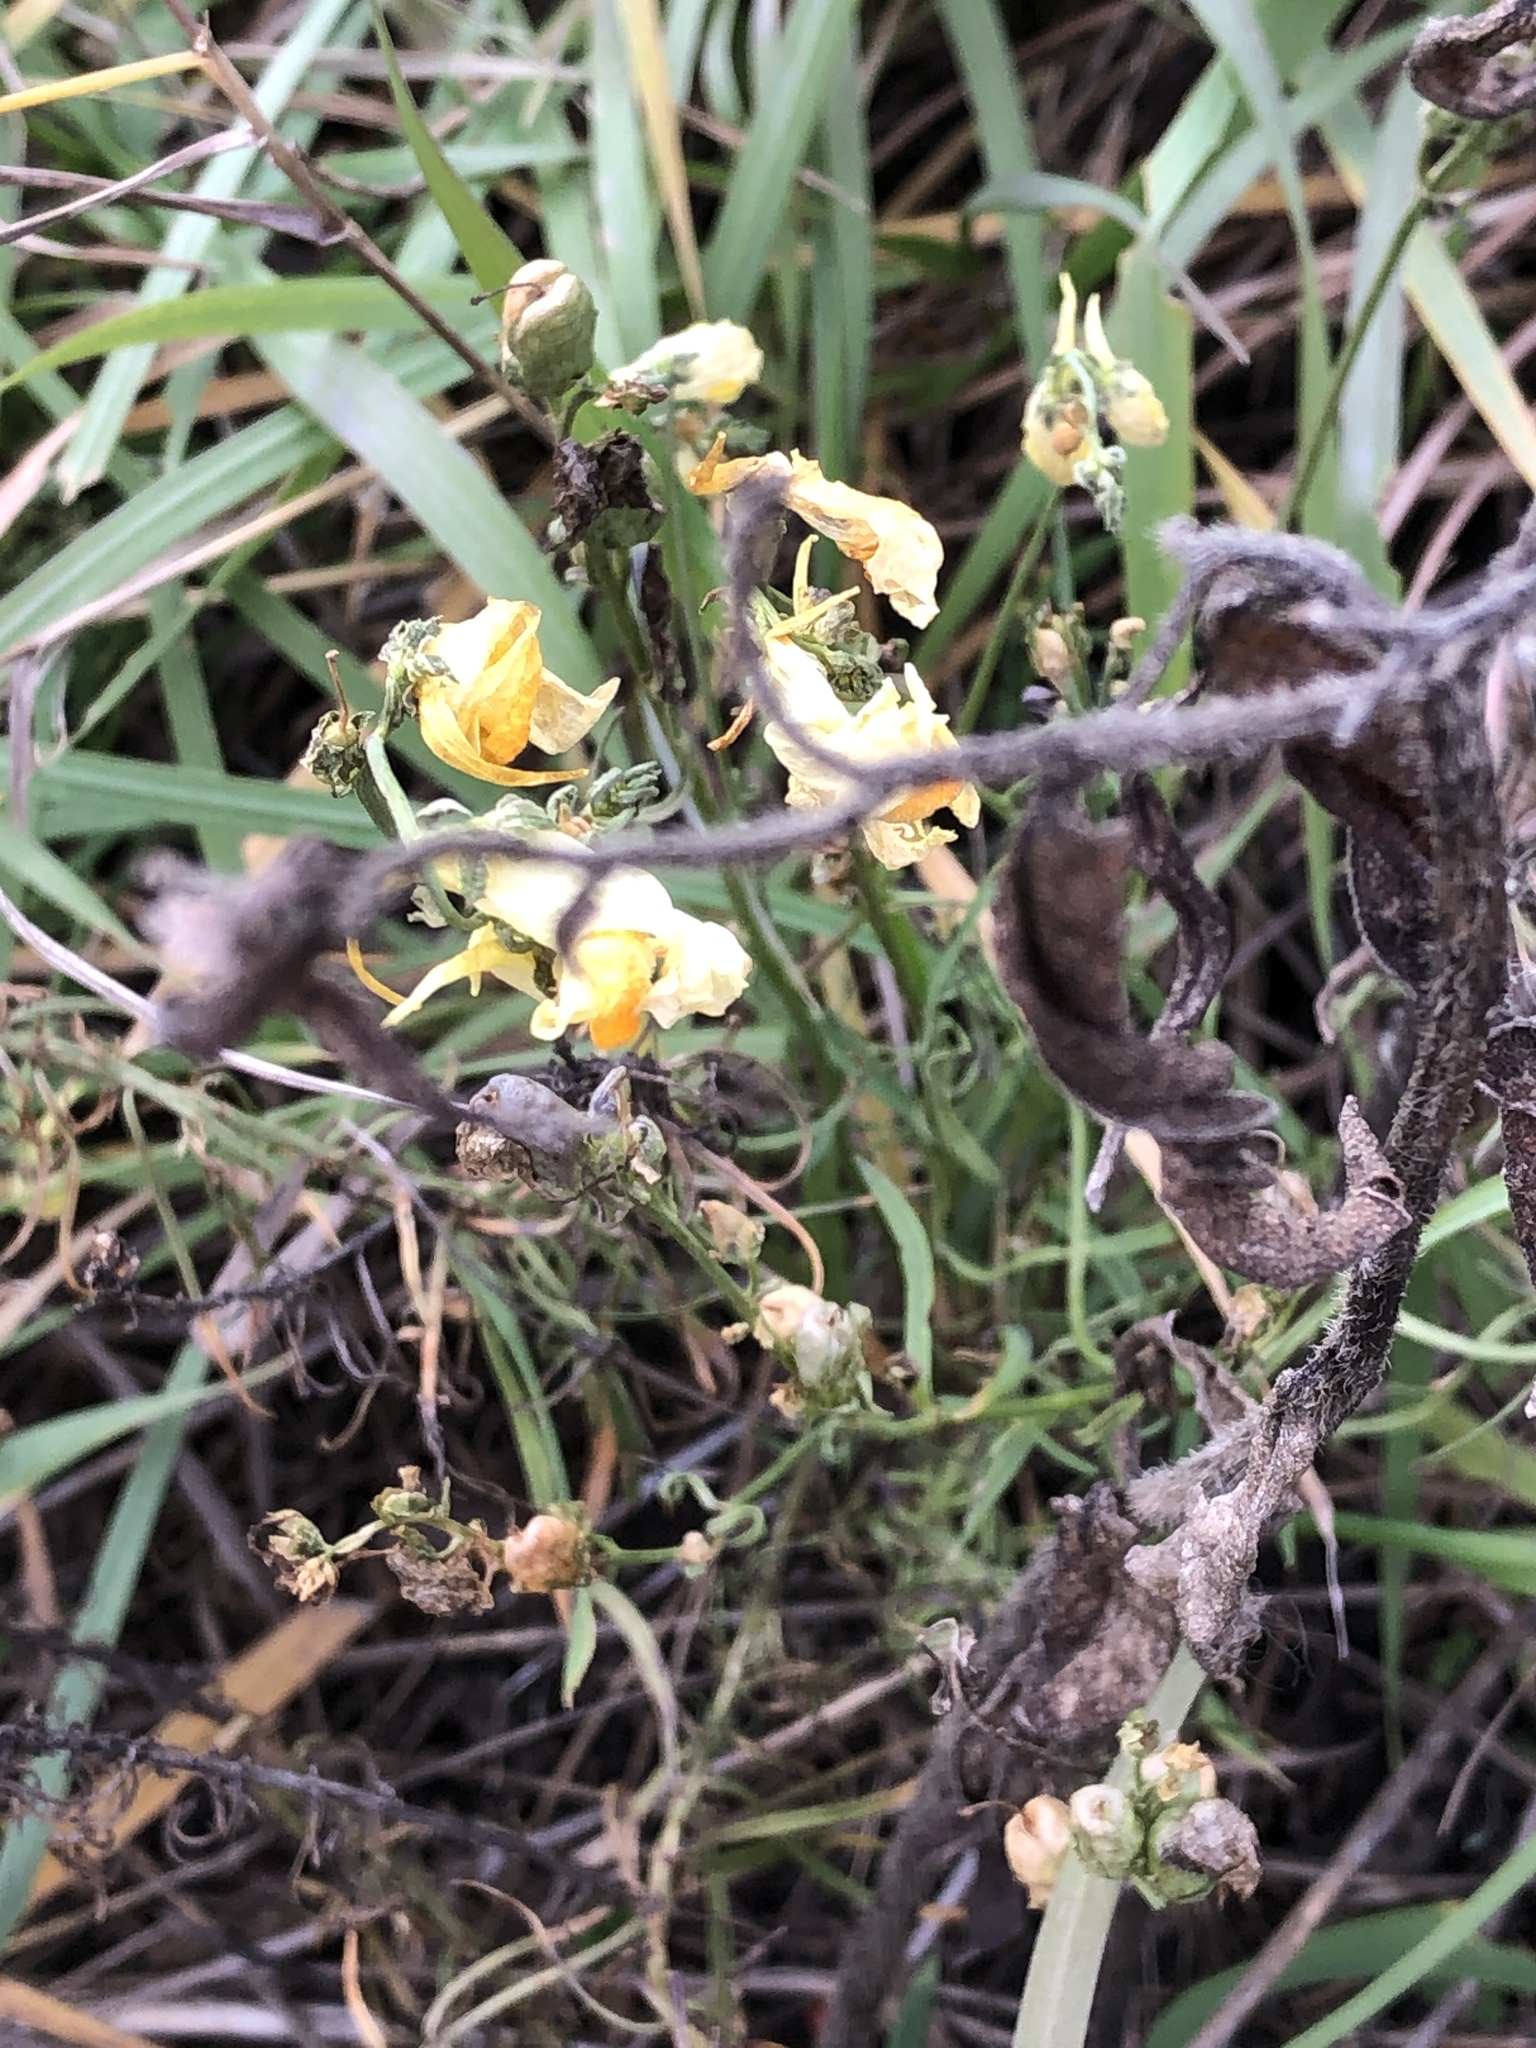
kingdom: Plantae
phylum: Tracheophyta
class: Magnoliopsida
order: Lamiales
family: Plantaginaceae
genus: Linaria
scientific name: Linaria vulgaris
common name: Butter and eggs
